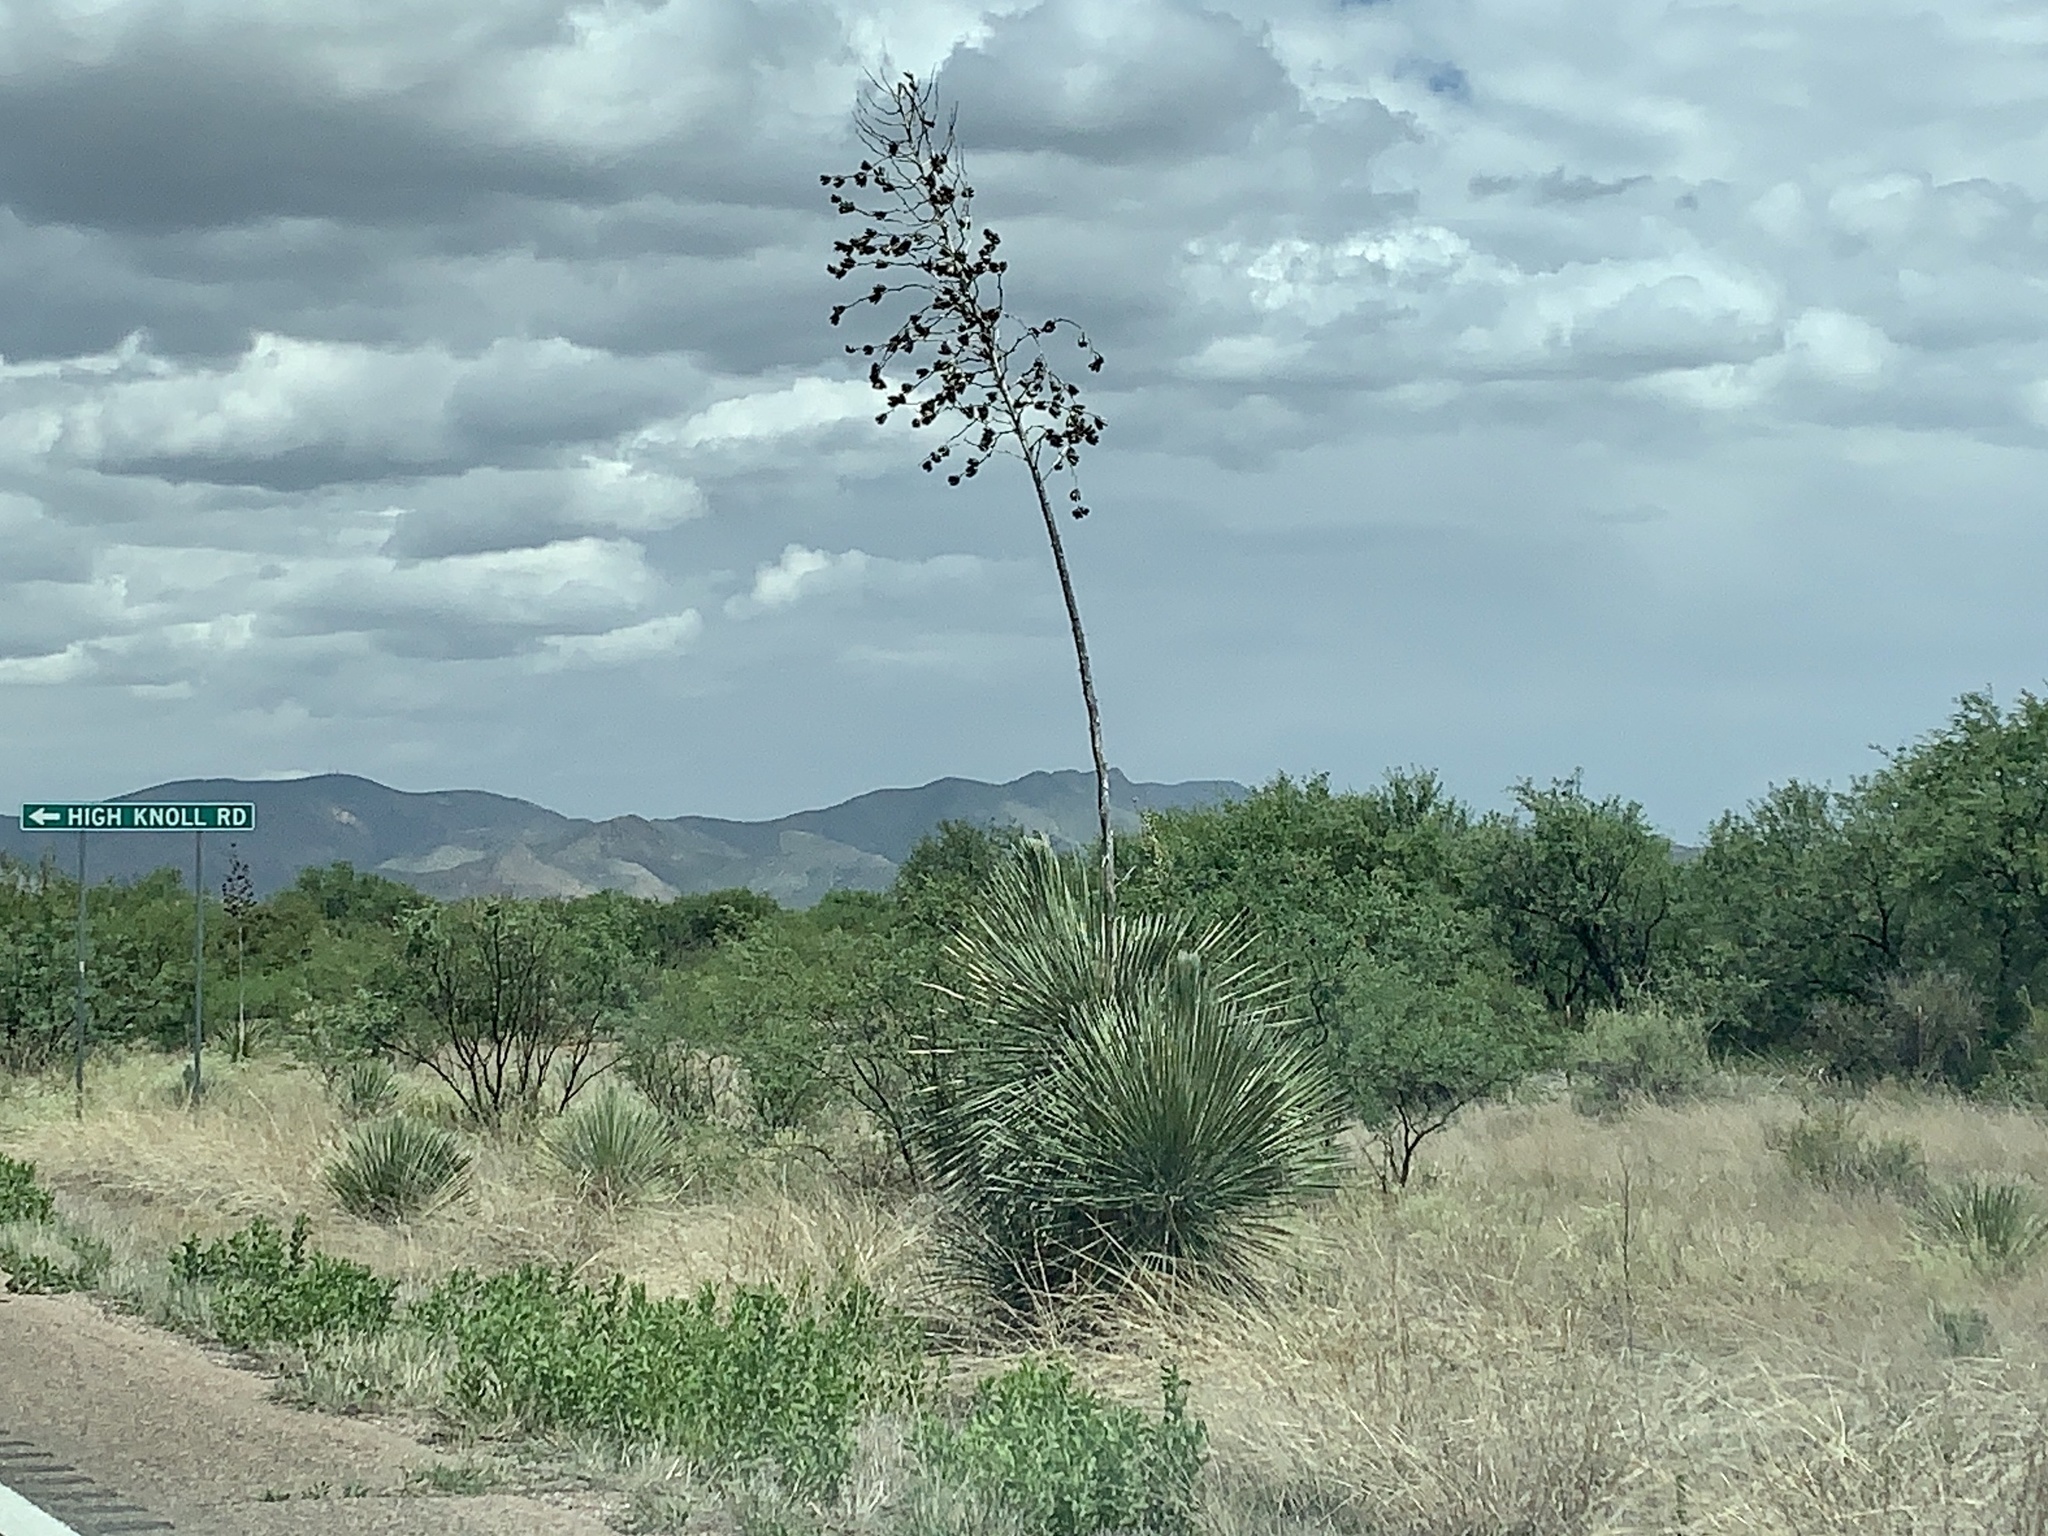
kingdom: Plantae
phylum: Tracheophyta
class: Liliopsida
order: Asparagales
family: Asparagaceae
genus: Yucca
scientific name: Yucca elata
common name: Palmella
